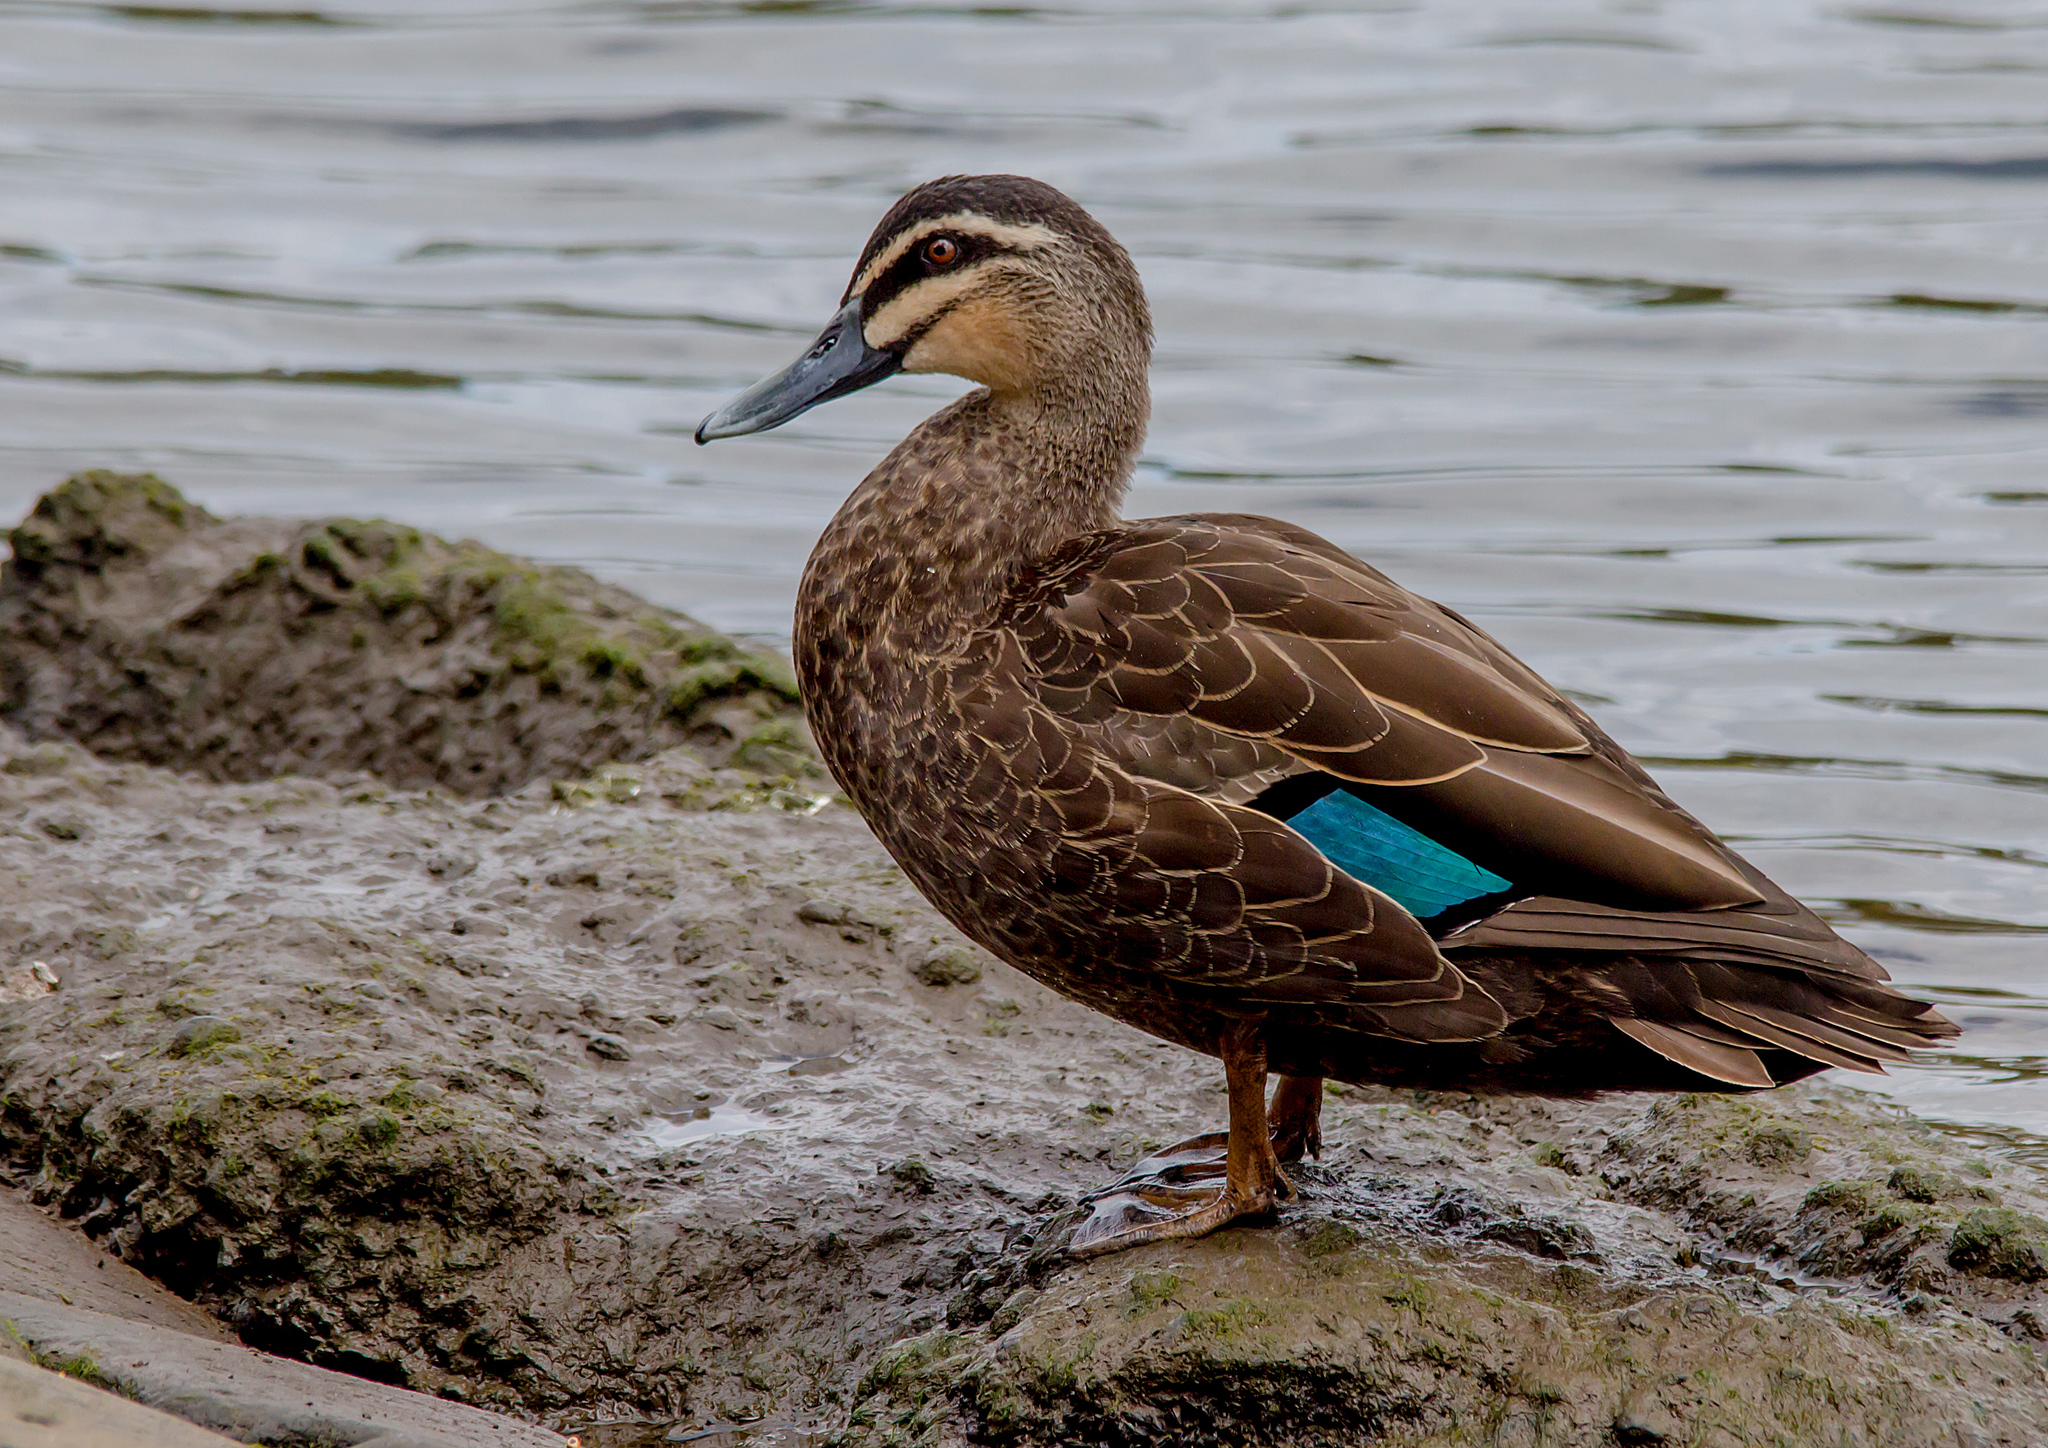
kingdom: Animalia
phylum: Chordata
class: Aves
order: Anseriformes
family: Anatidae
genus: Anas
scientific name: Anas
